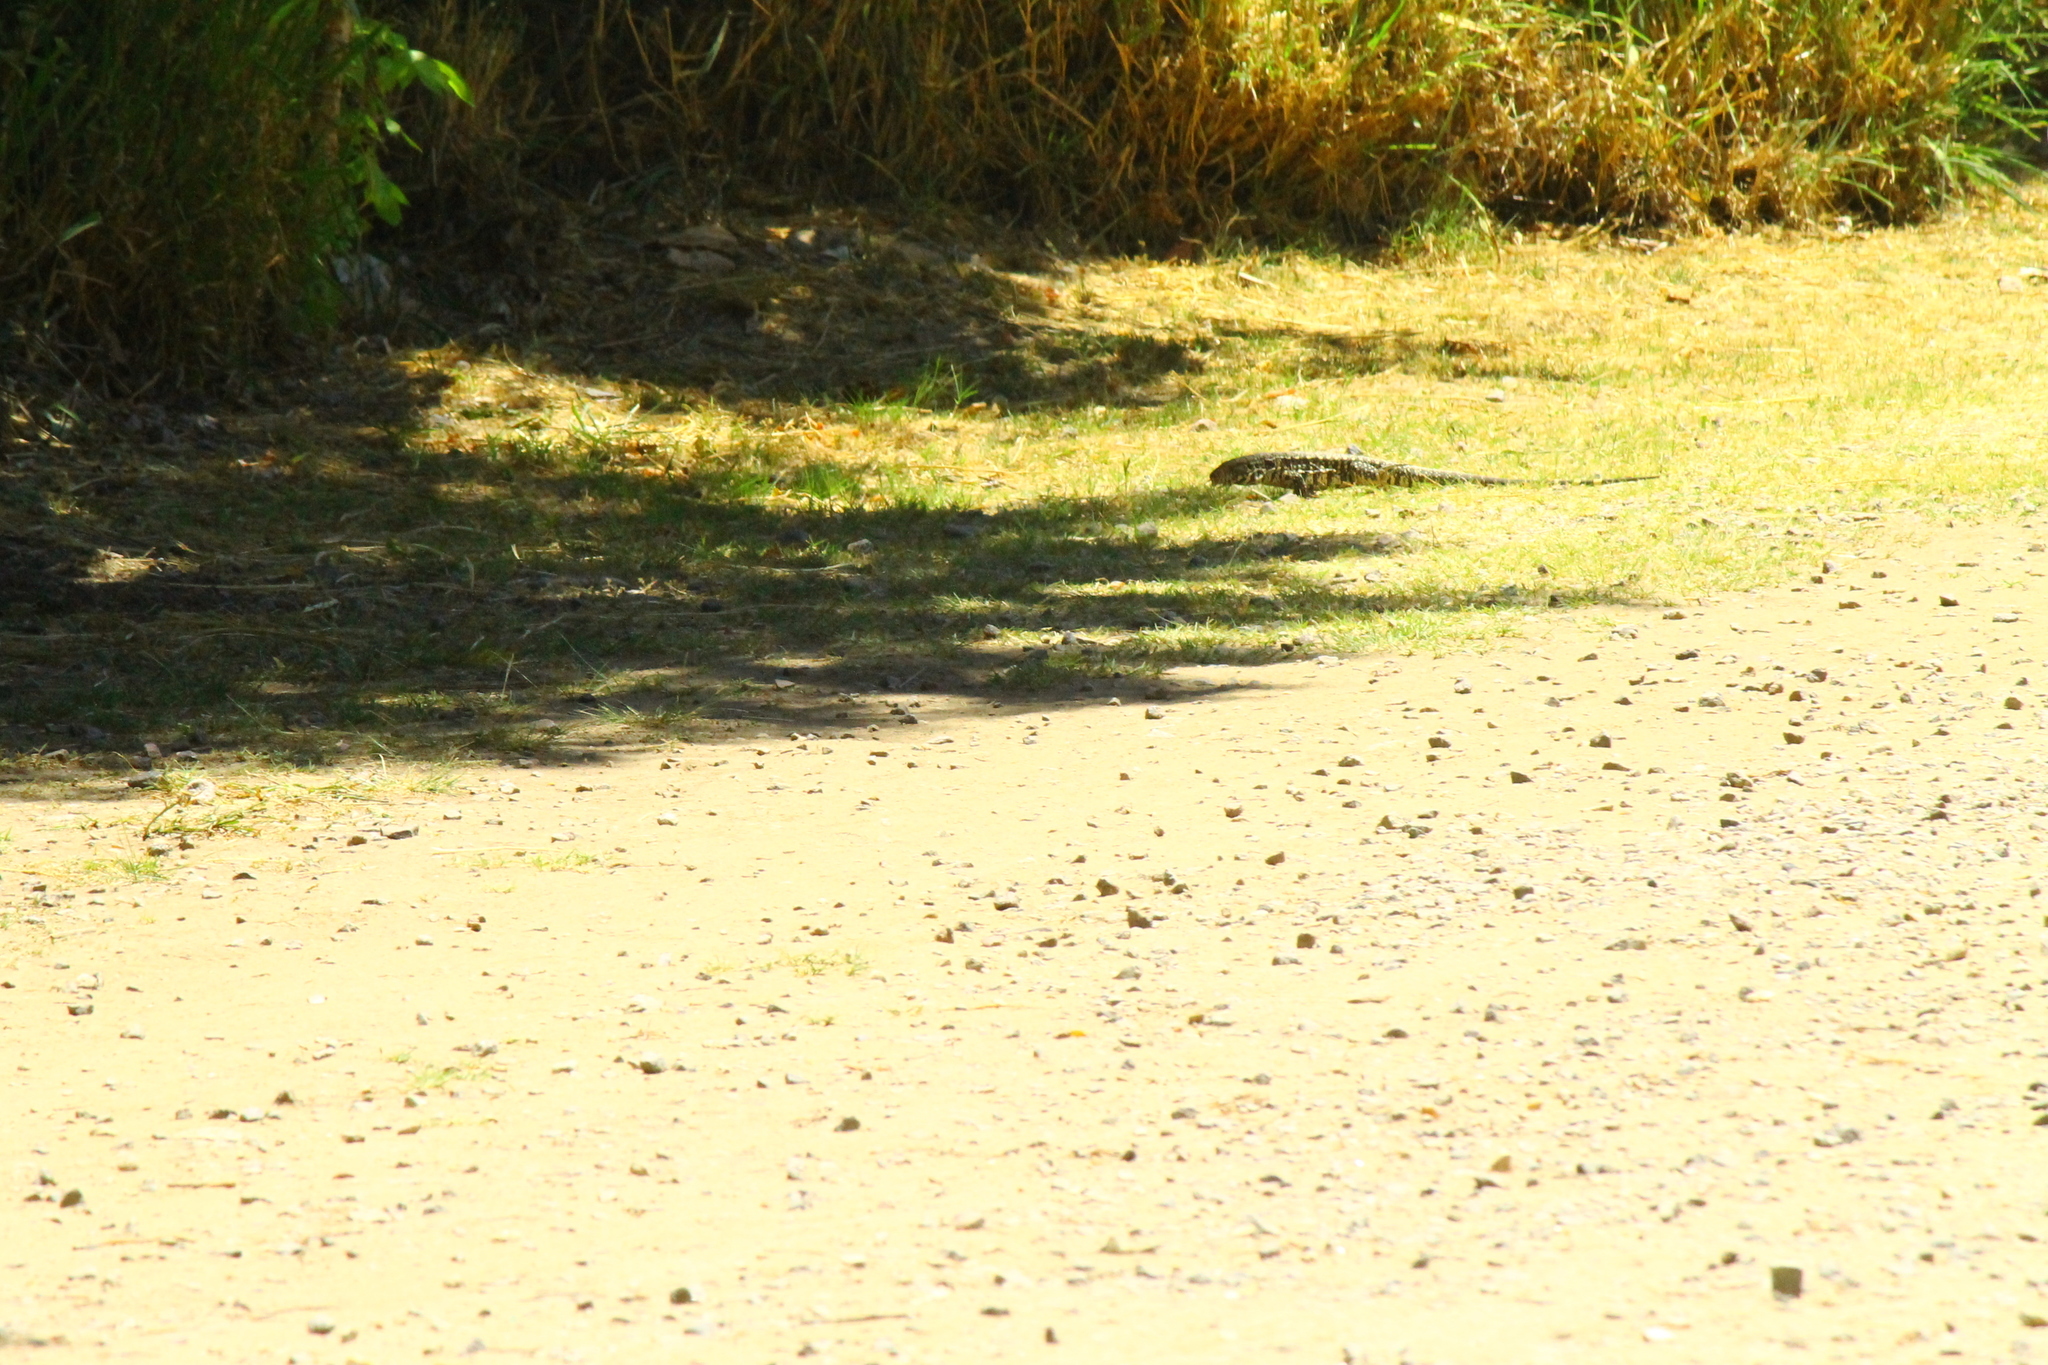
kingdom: Animalia
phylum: Chordata
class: Squamata
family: Teiidae
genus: Salvator
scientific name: Salvator merianae
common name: Argentine black and white tegu
